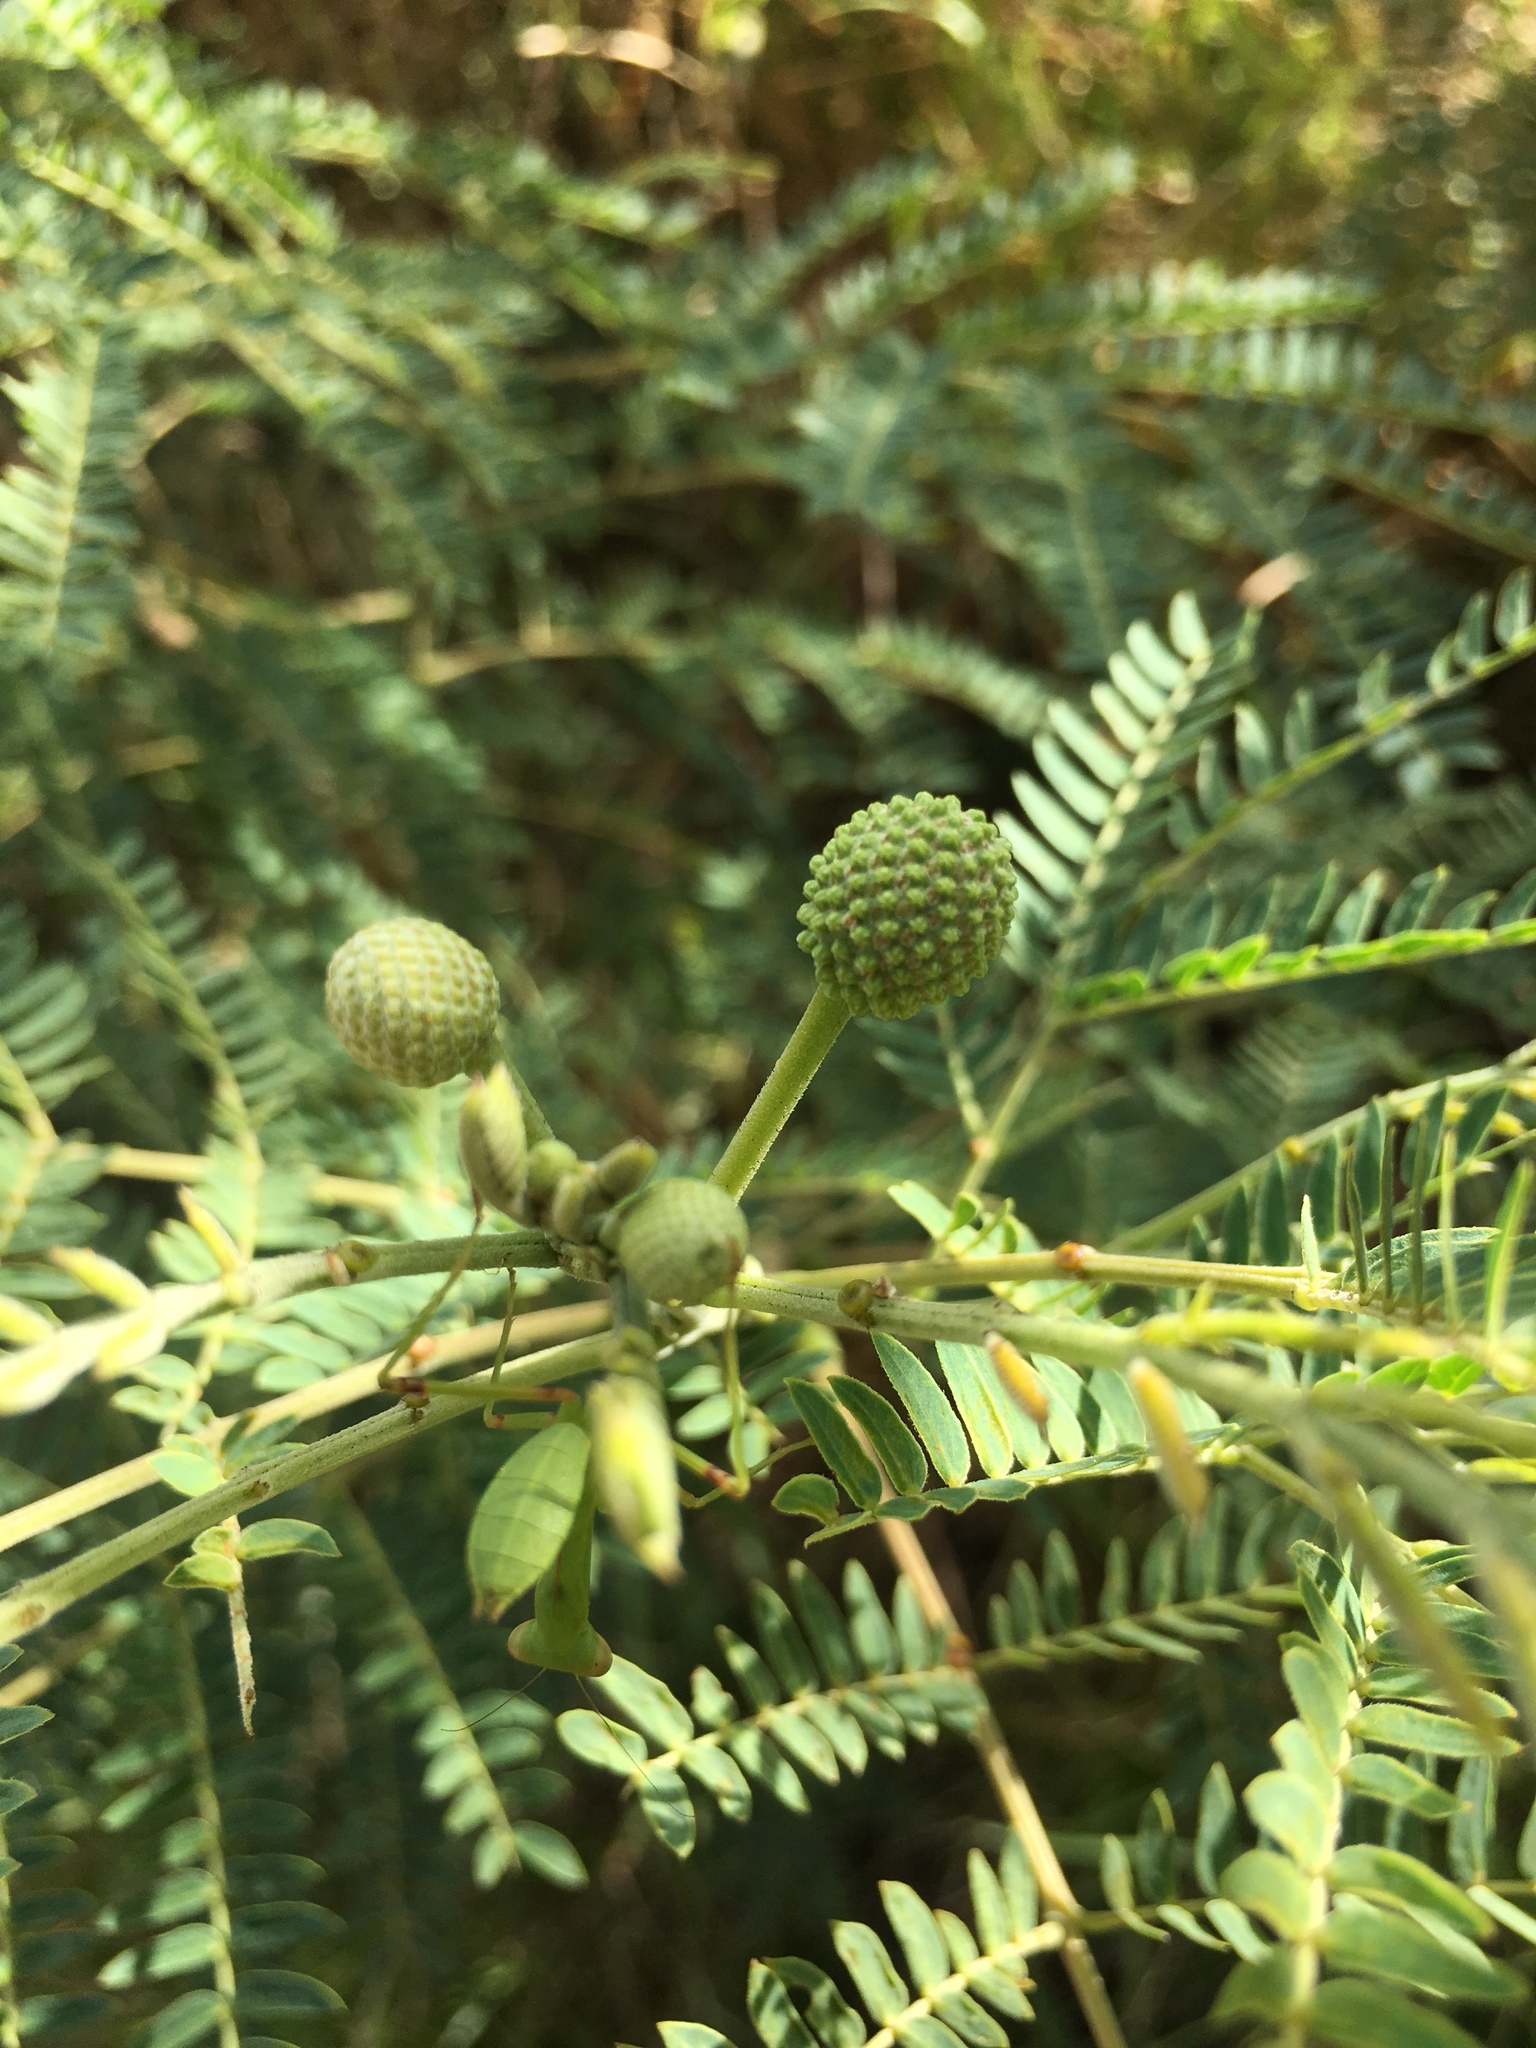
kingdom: Plantae
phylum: Tracheophyta
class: Magnoliopsida
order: Fabales
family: Fabaceae
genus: Leucaena
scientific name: Leucaena leucocephala
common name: White leadtree
